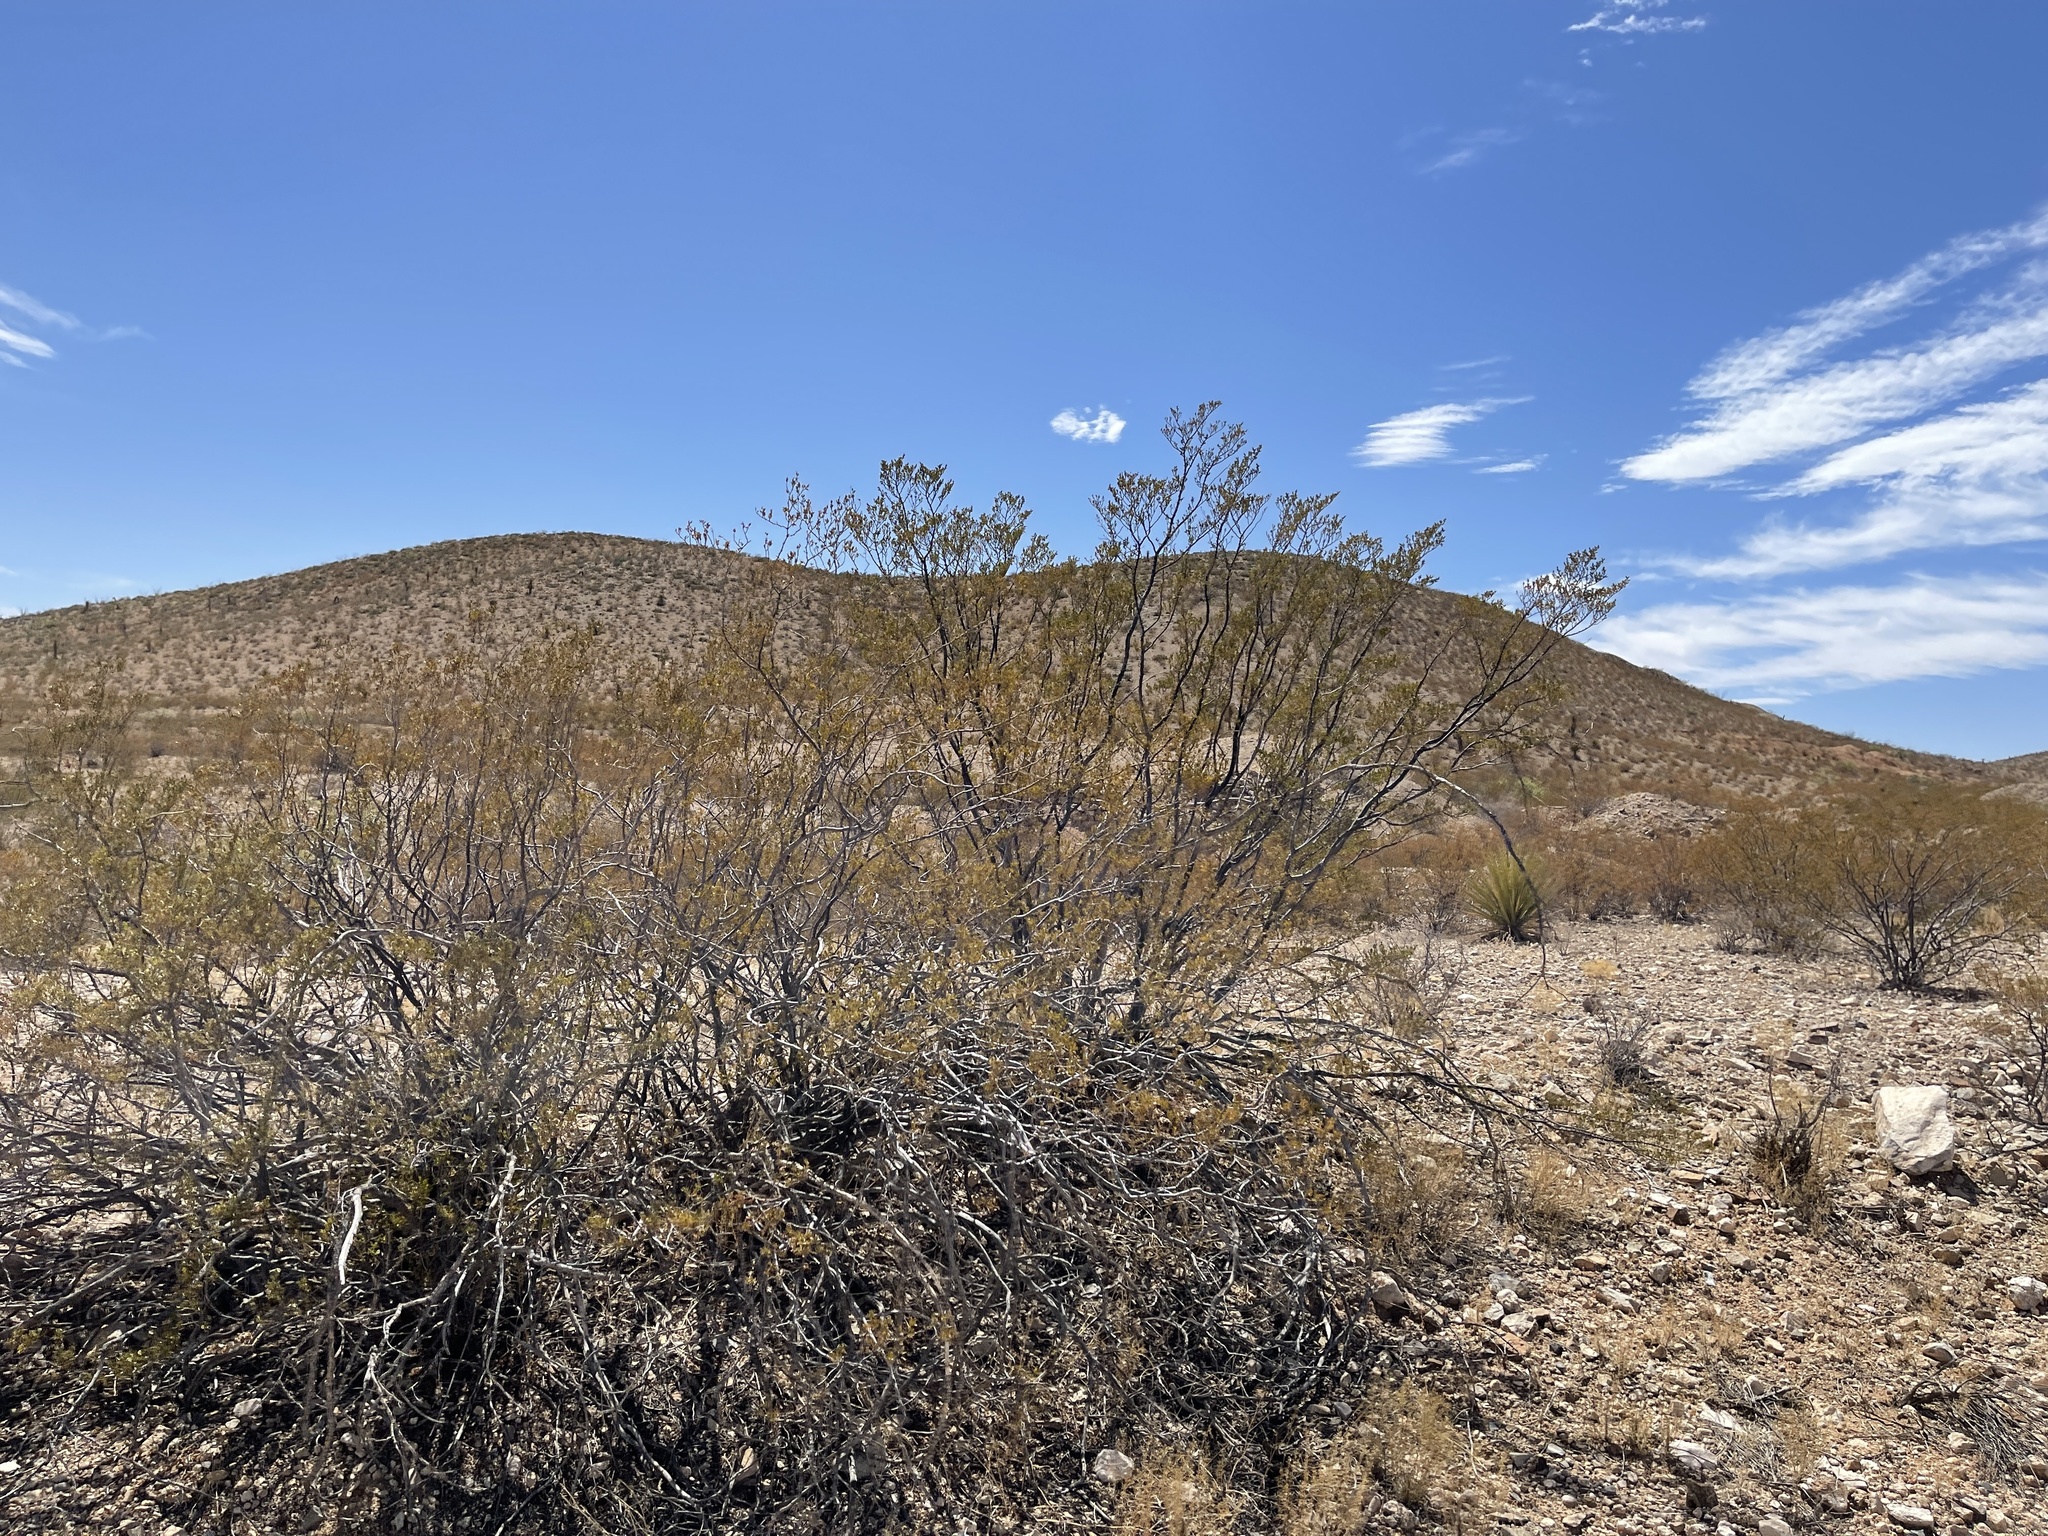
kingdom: Plantae
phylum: Tracheophyta
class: Magnoliopsida
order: Zygophyllales
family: Zygophyllaceae
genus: Larrea
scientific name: Larrea tridentata
